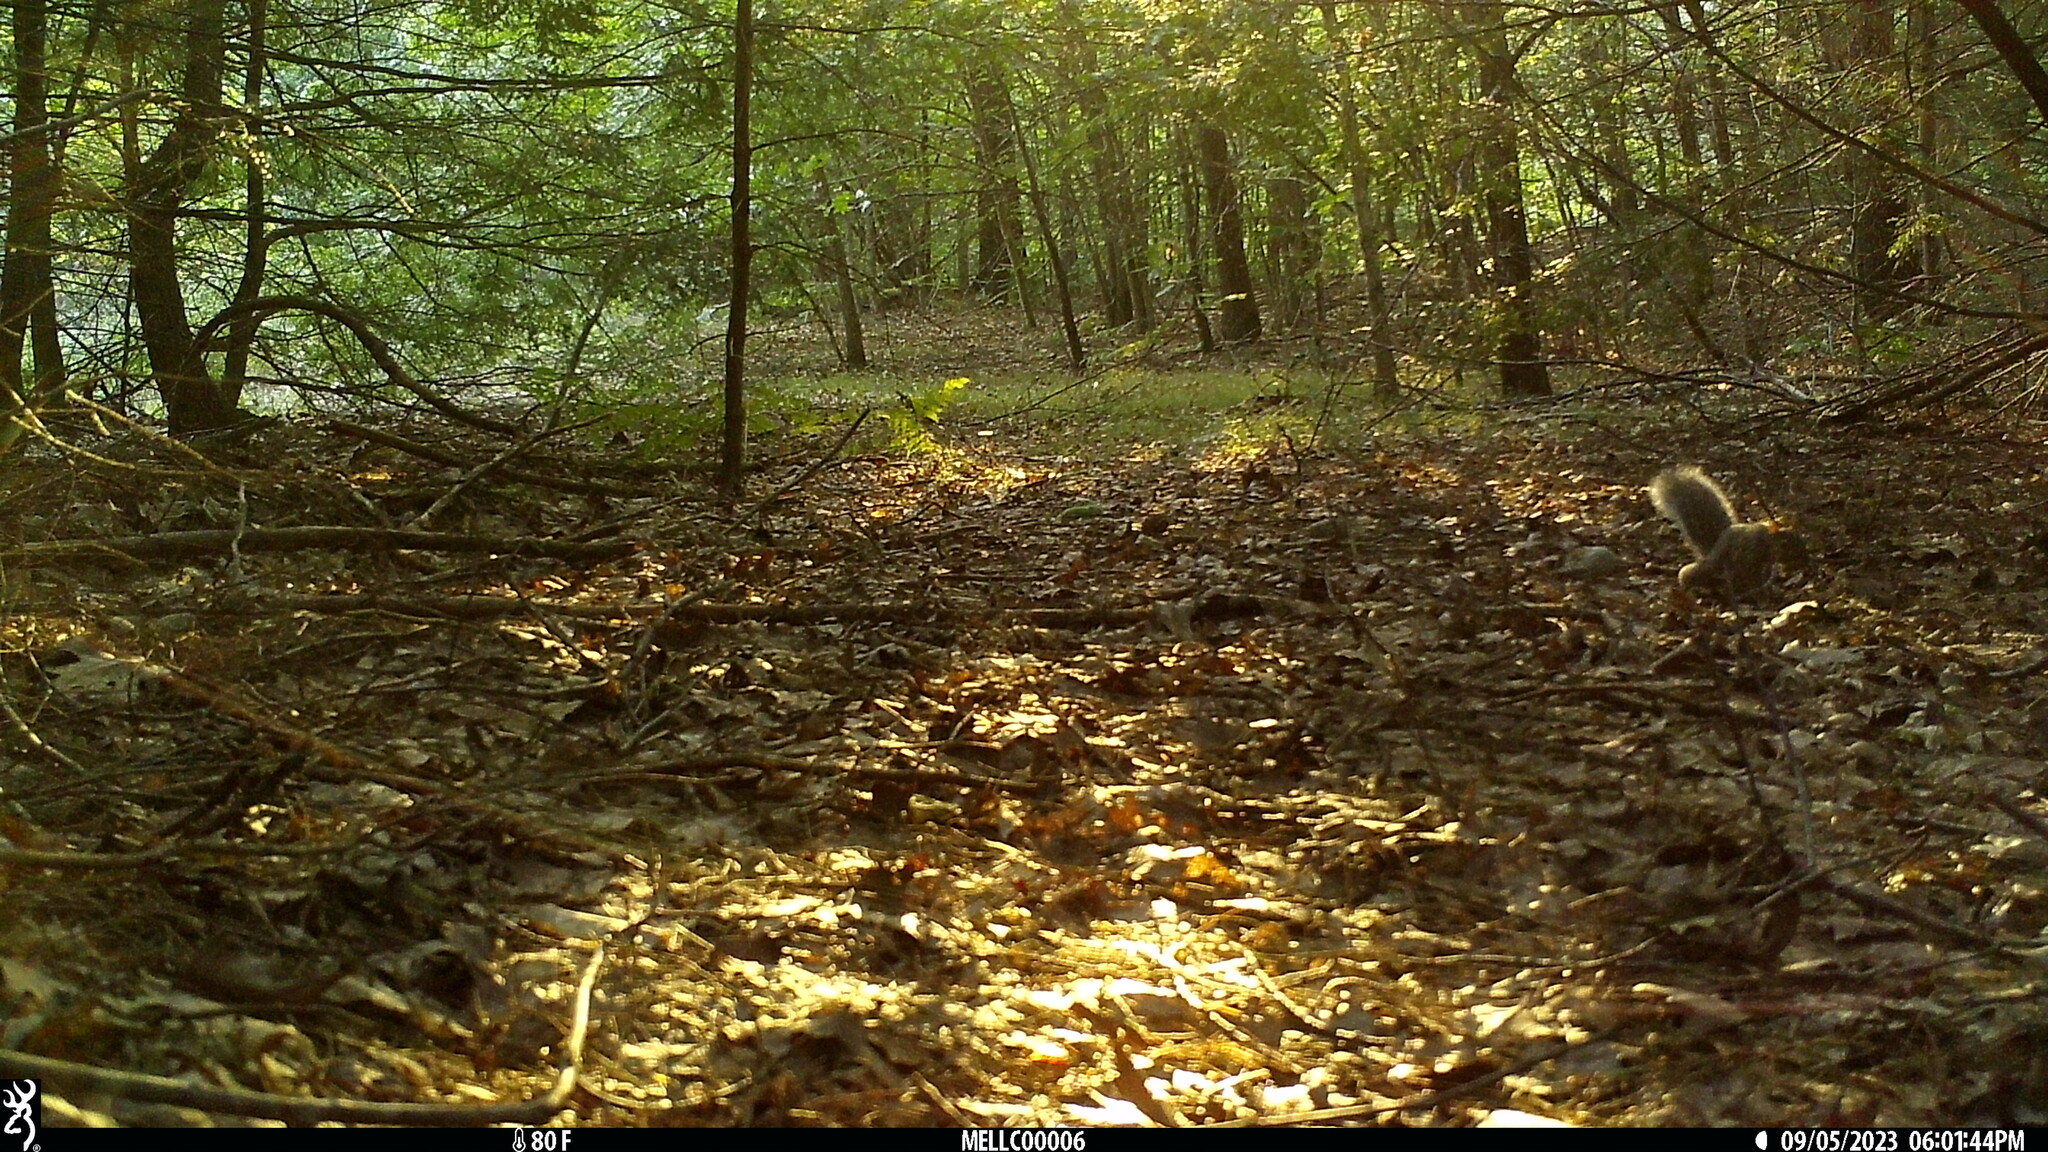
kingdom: Animalia
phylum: Chordata
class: Mammalia
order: Rodentia
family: Sciuridae
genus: Sciurus
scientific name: Sciurus carolinensis
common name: Eastern gray squirrel
